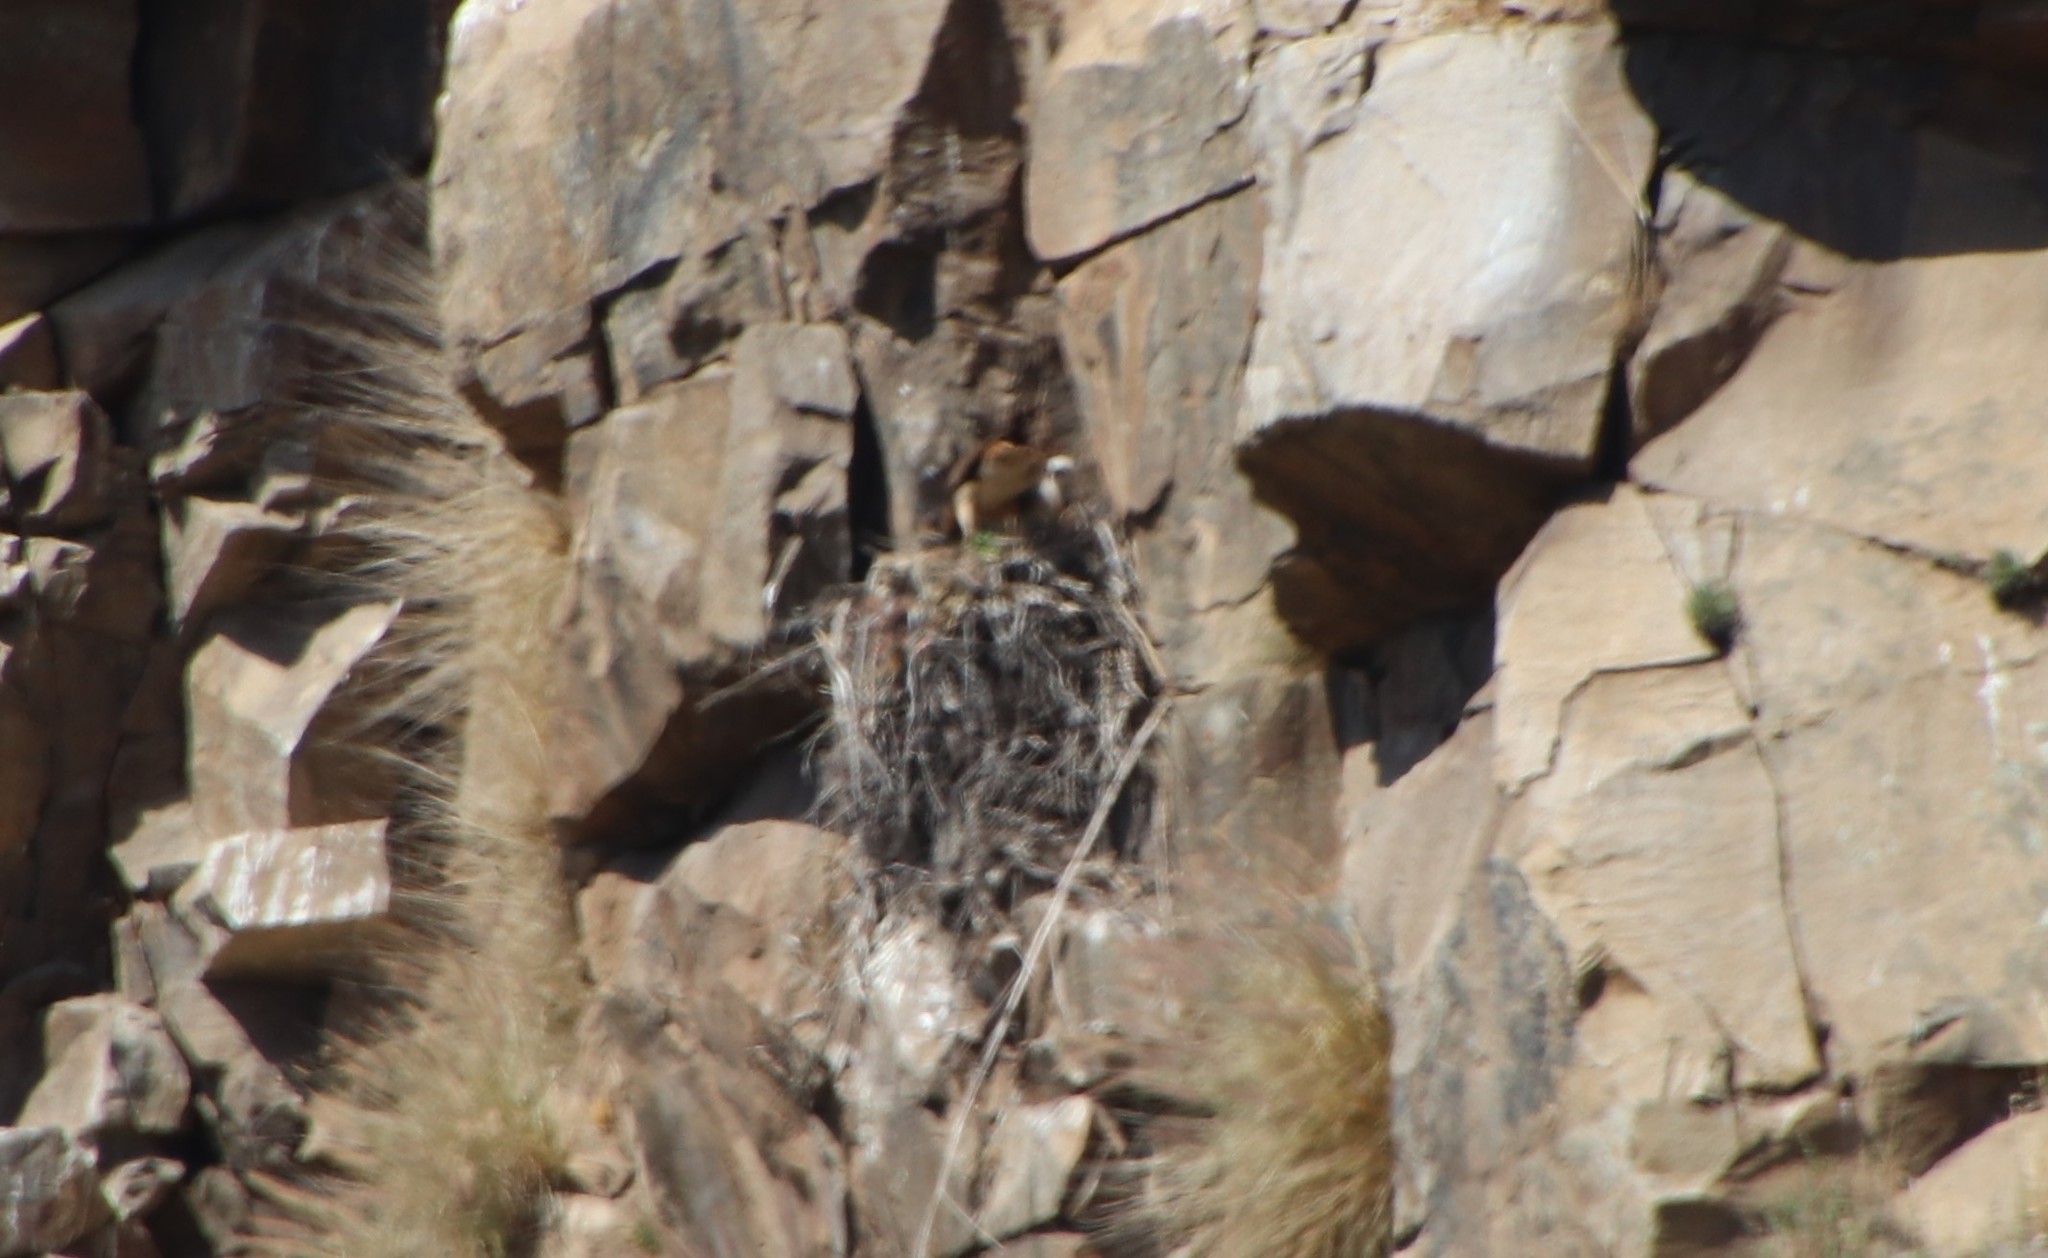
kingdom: Animalia
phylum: Chordata
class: Aves
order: Accipitriformes
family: Accipitridae
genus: Buteo
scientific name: Buteo jamaicensis
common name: Red-tailed hawk
